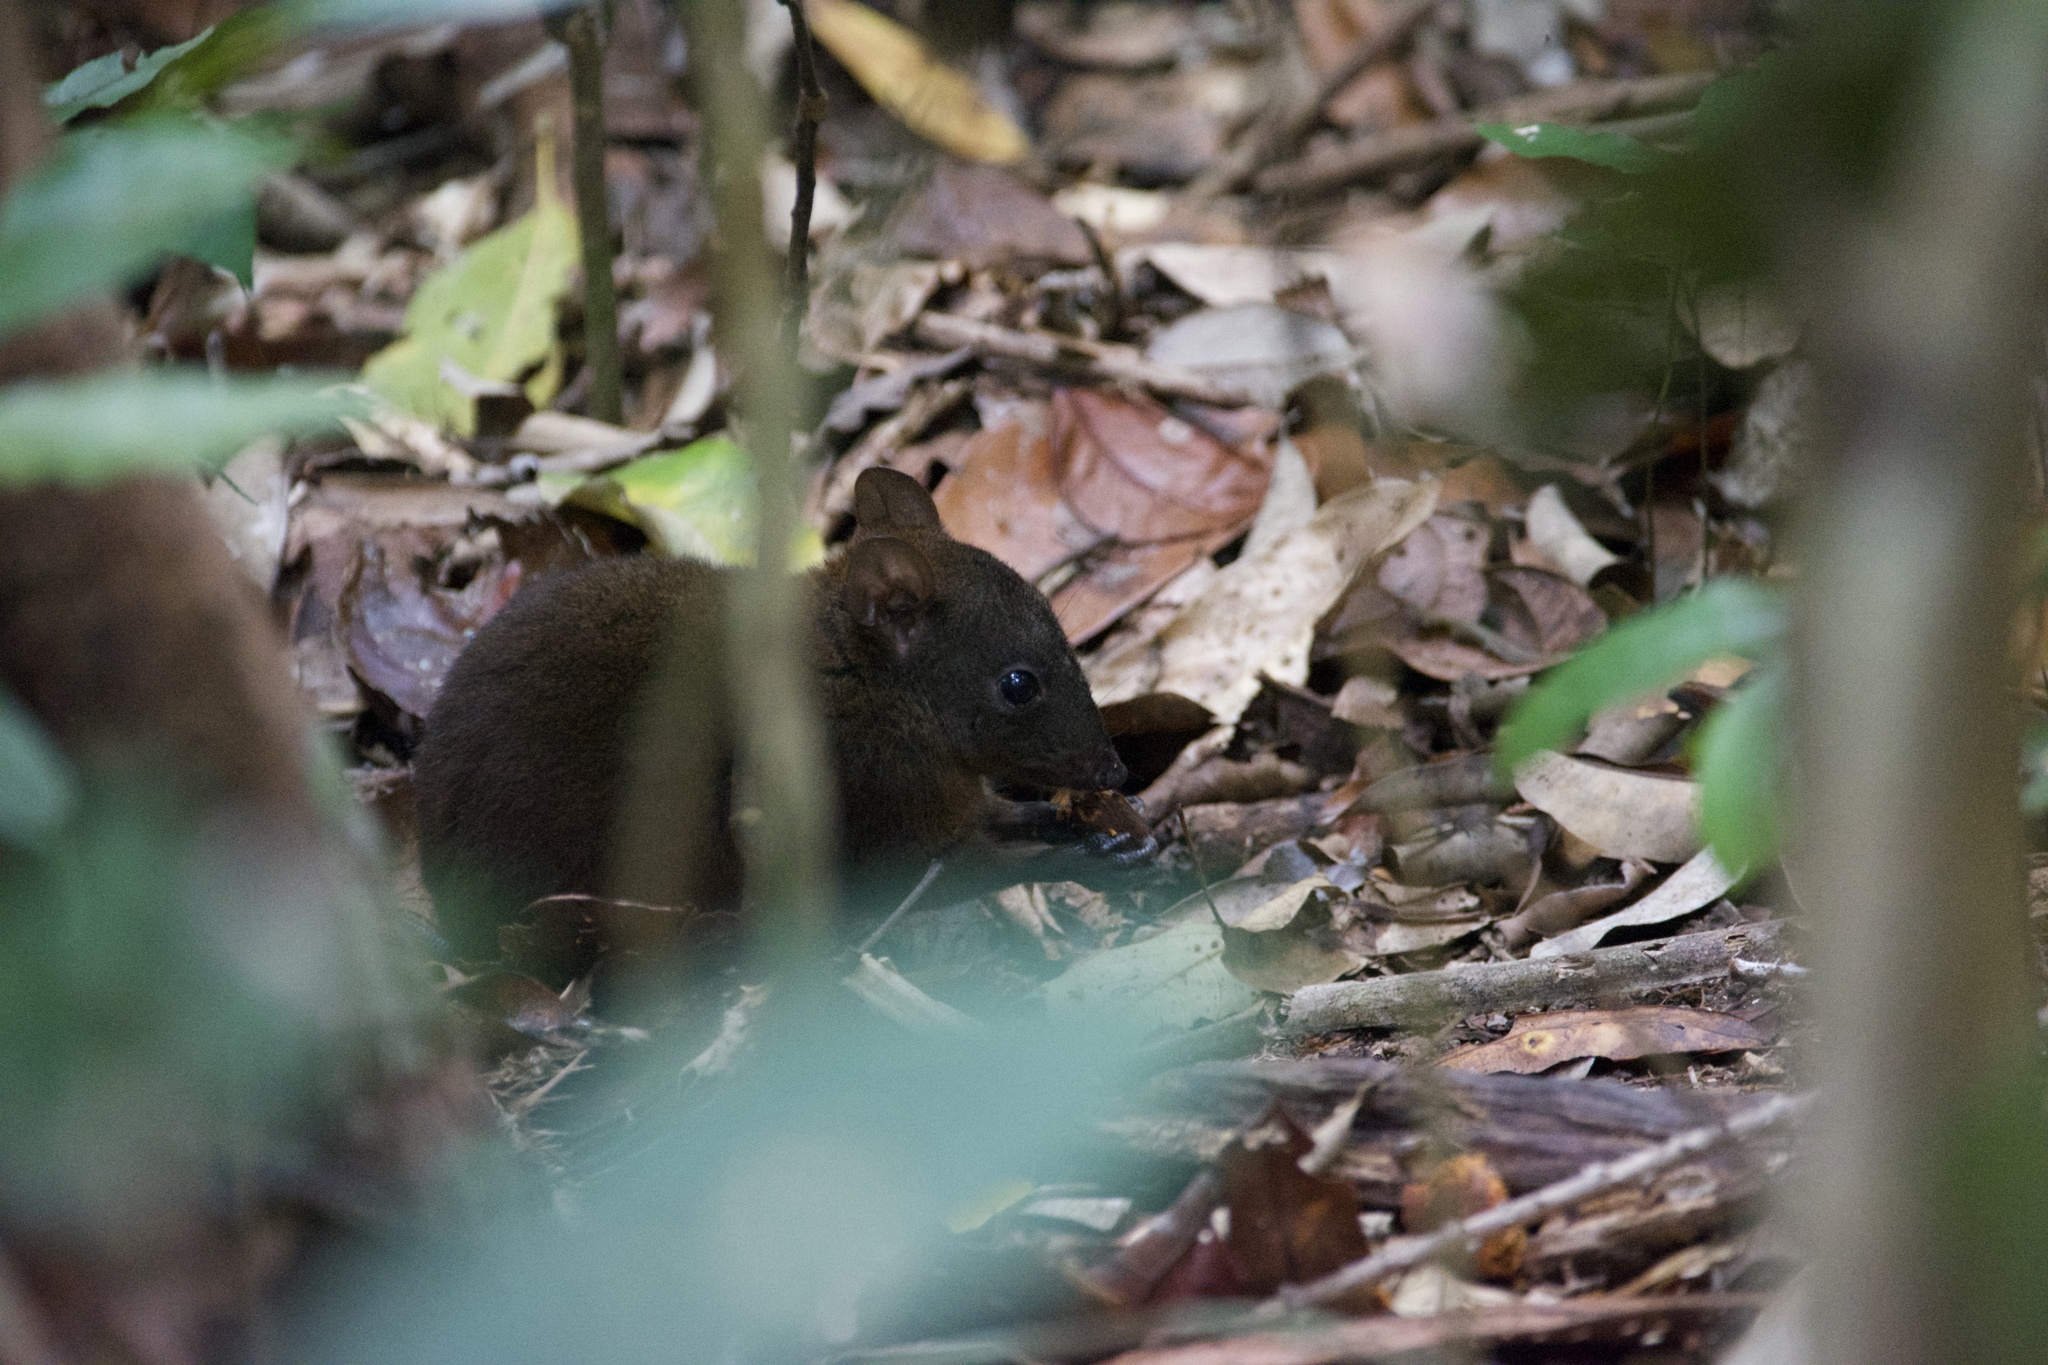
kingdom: Animalia
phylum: Chordata
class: Mammalia
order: Diprotodontia
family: Hypsiprymnodontidae
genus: Hypsiprymnodon
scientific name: Hypsiprymnodon moschatus
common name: Musky rat-kangaroo
